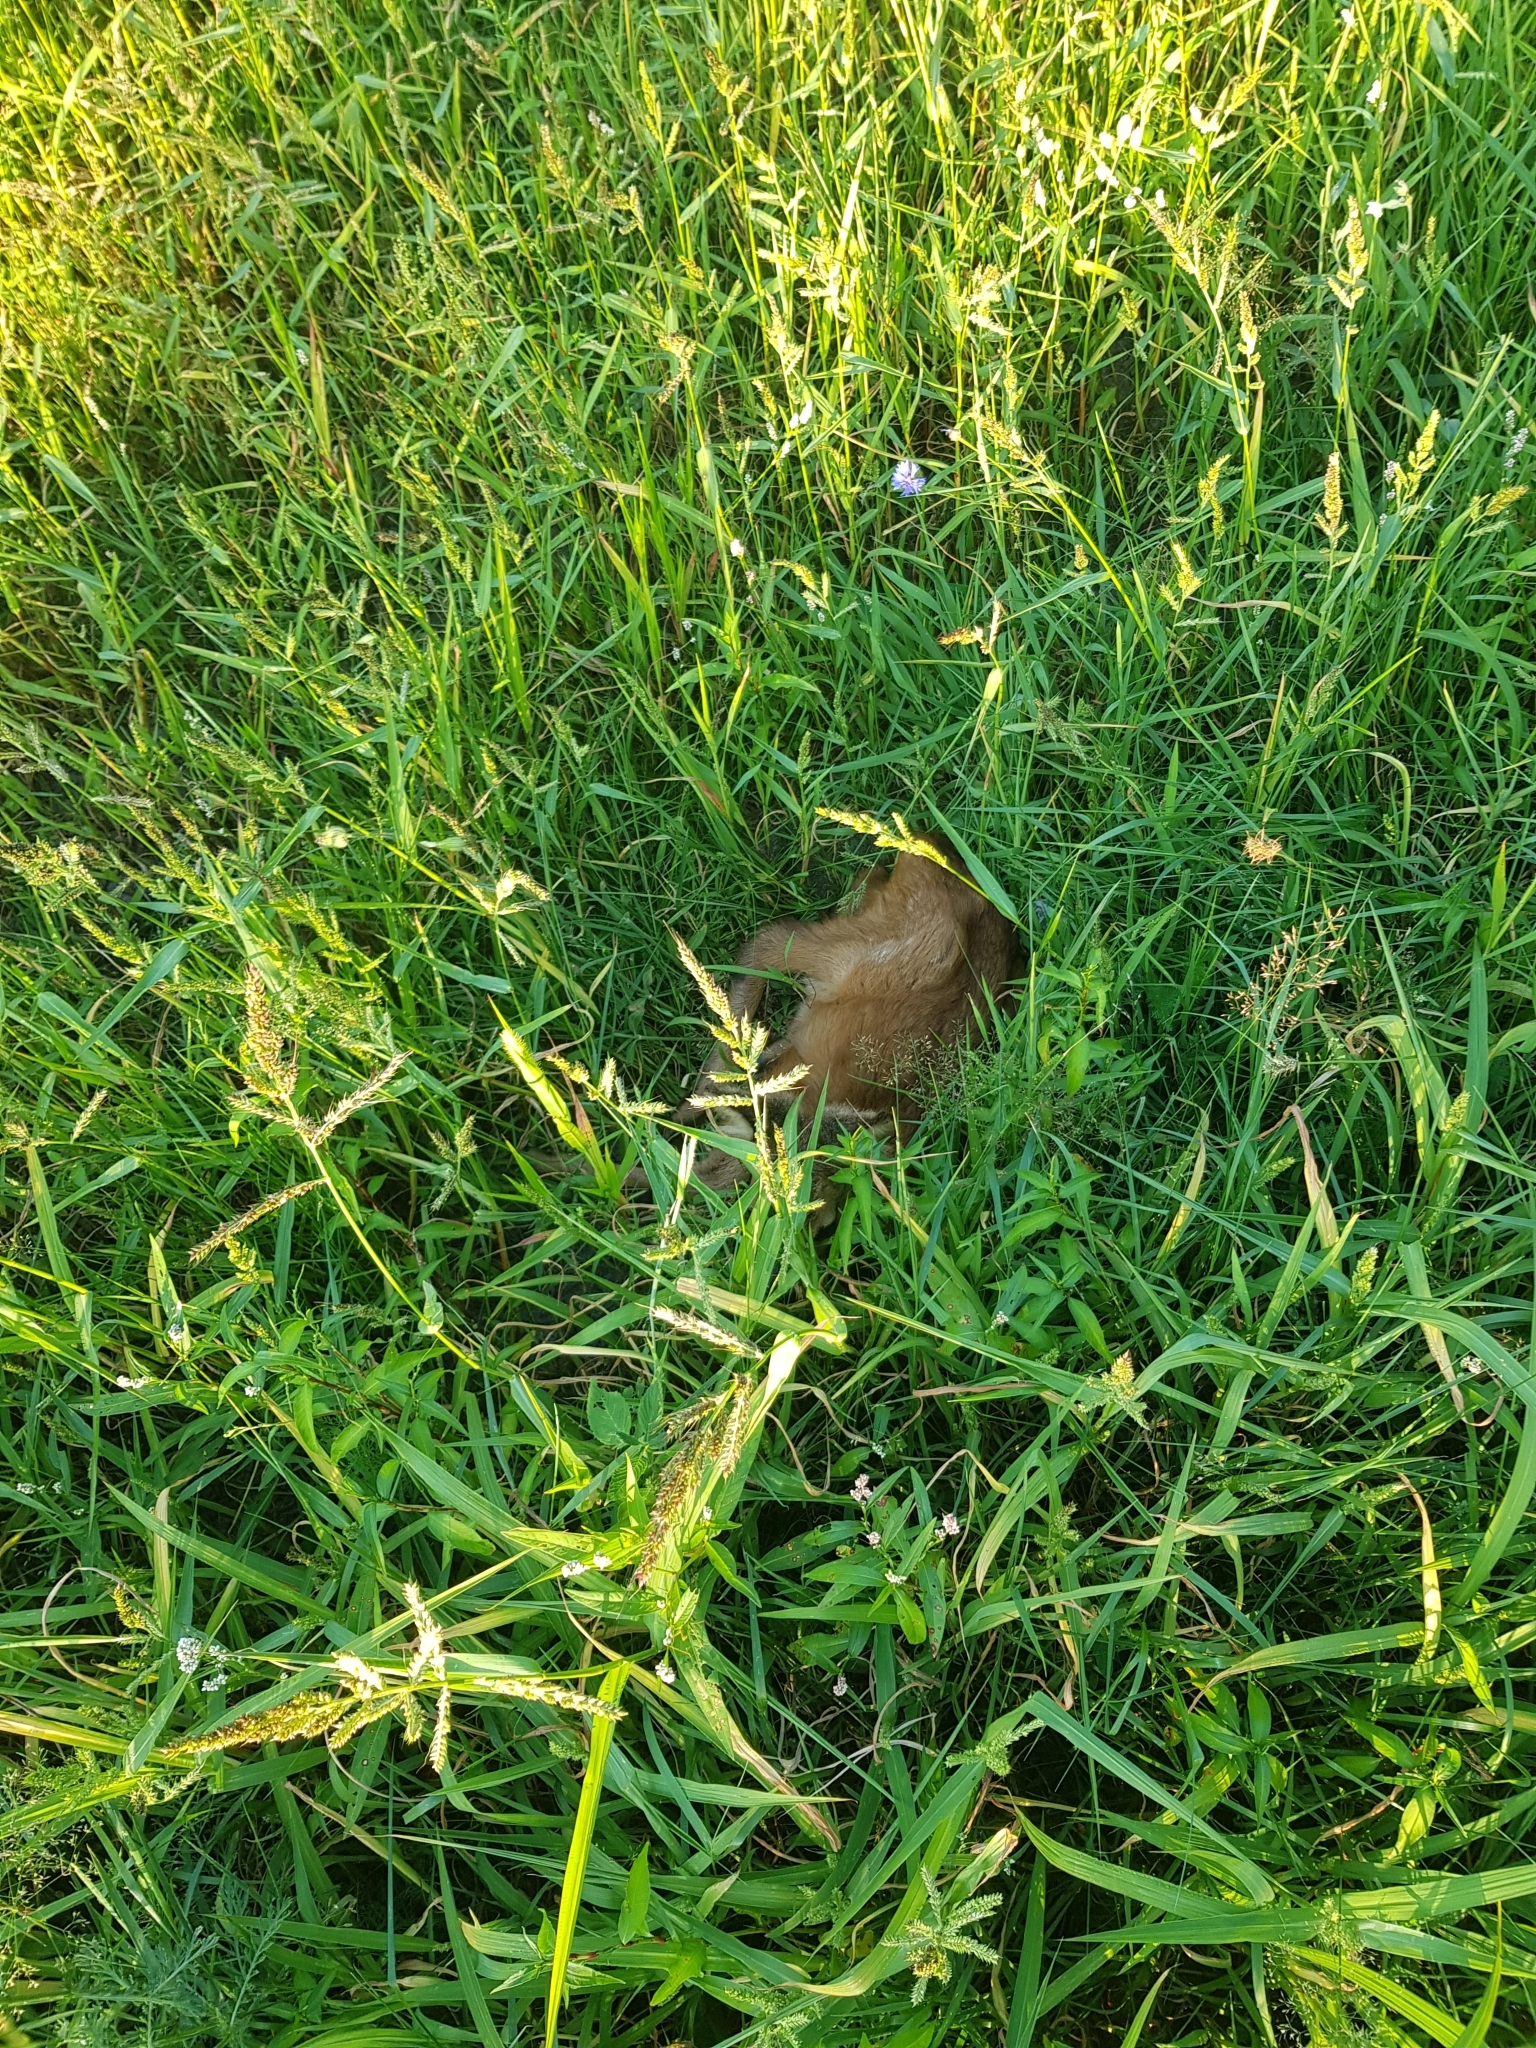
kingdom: Animalia
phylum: Chordata
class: Mammalia
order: Artiodactyla
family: Cervidae
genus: Capreolus
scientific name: Capreolus capreolus
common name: Western roe deer
